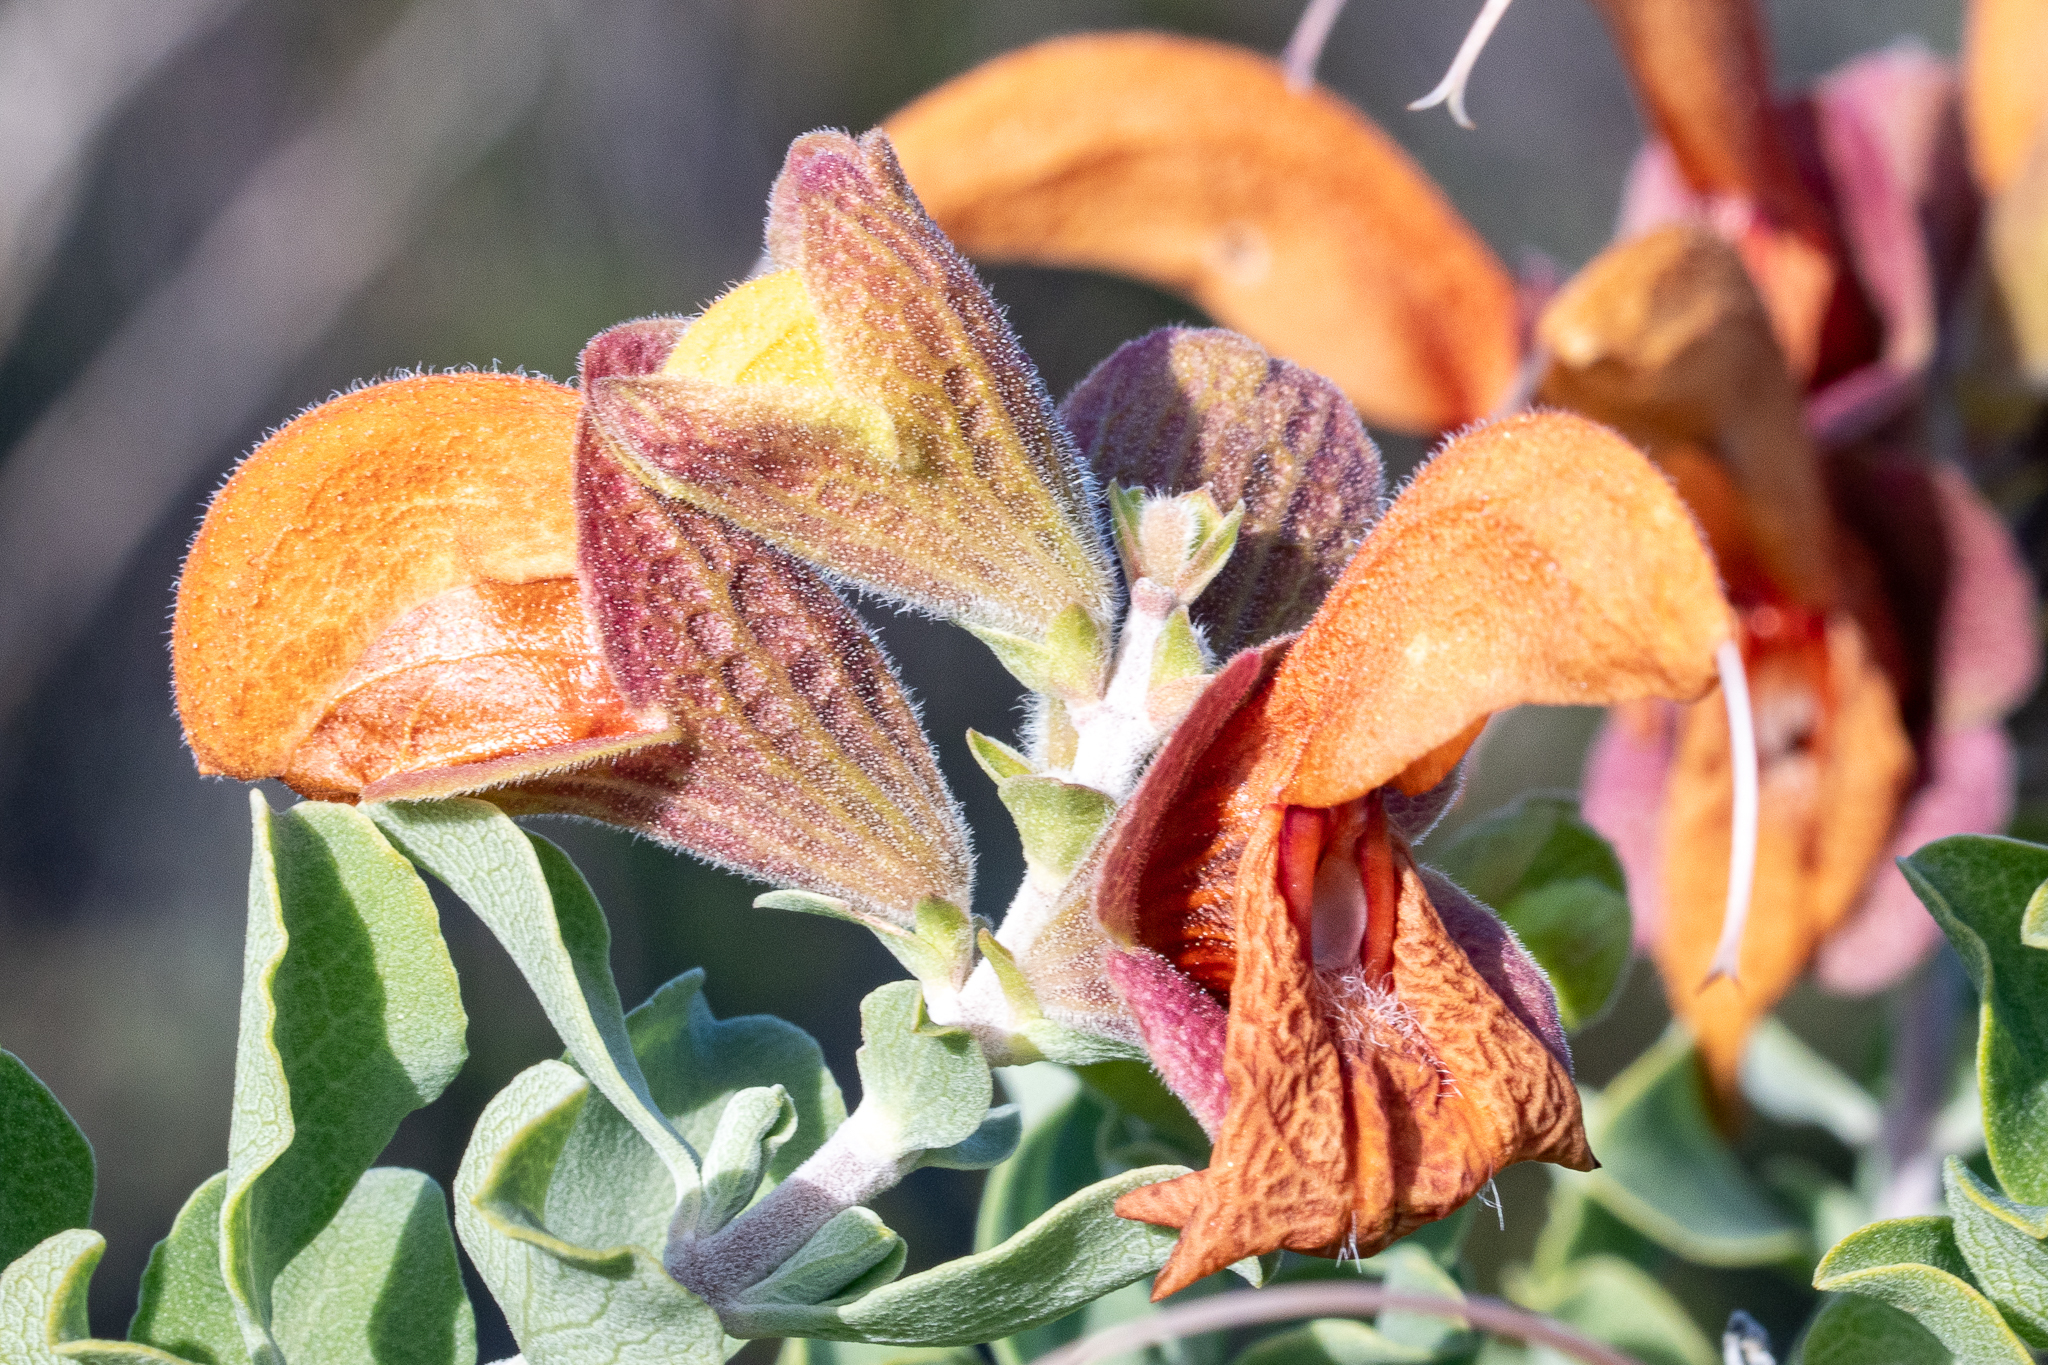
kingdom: Plantae
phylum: Tracheophyta
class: Magnoliopsida
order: Lamiales
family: Lamiaceae
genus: Salvia
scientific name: Salvia aurea
